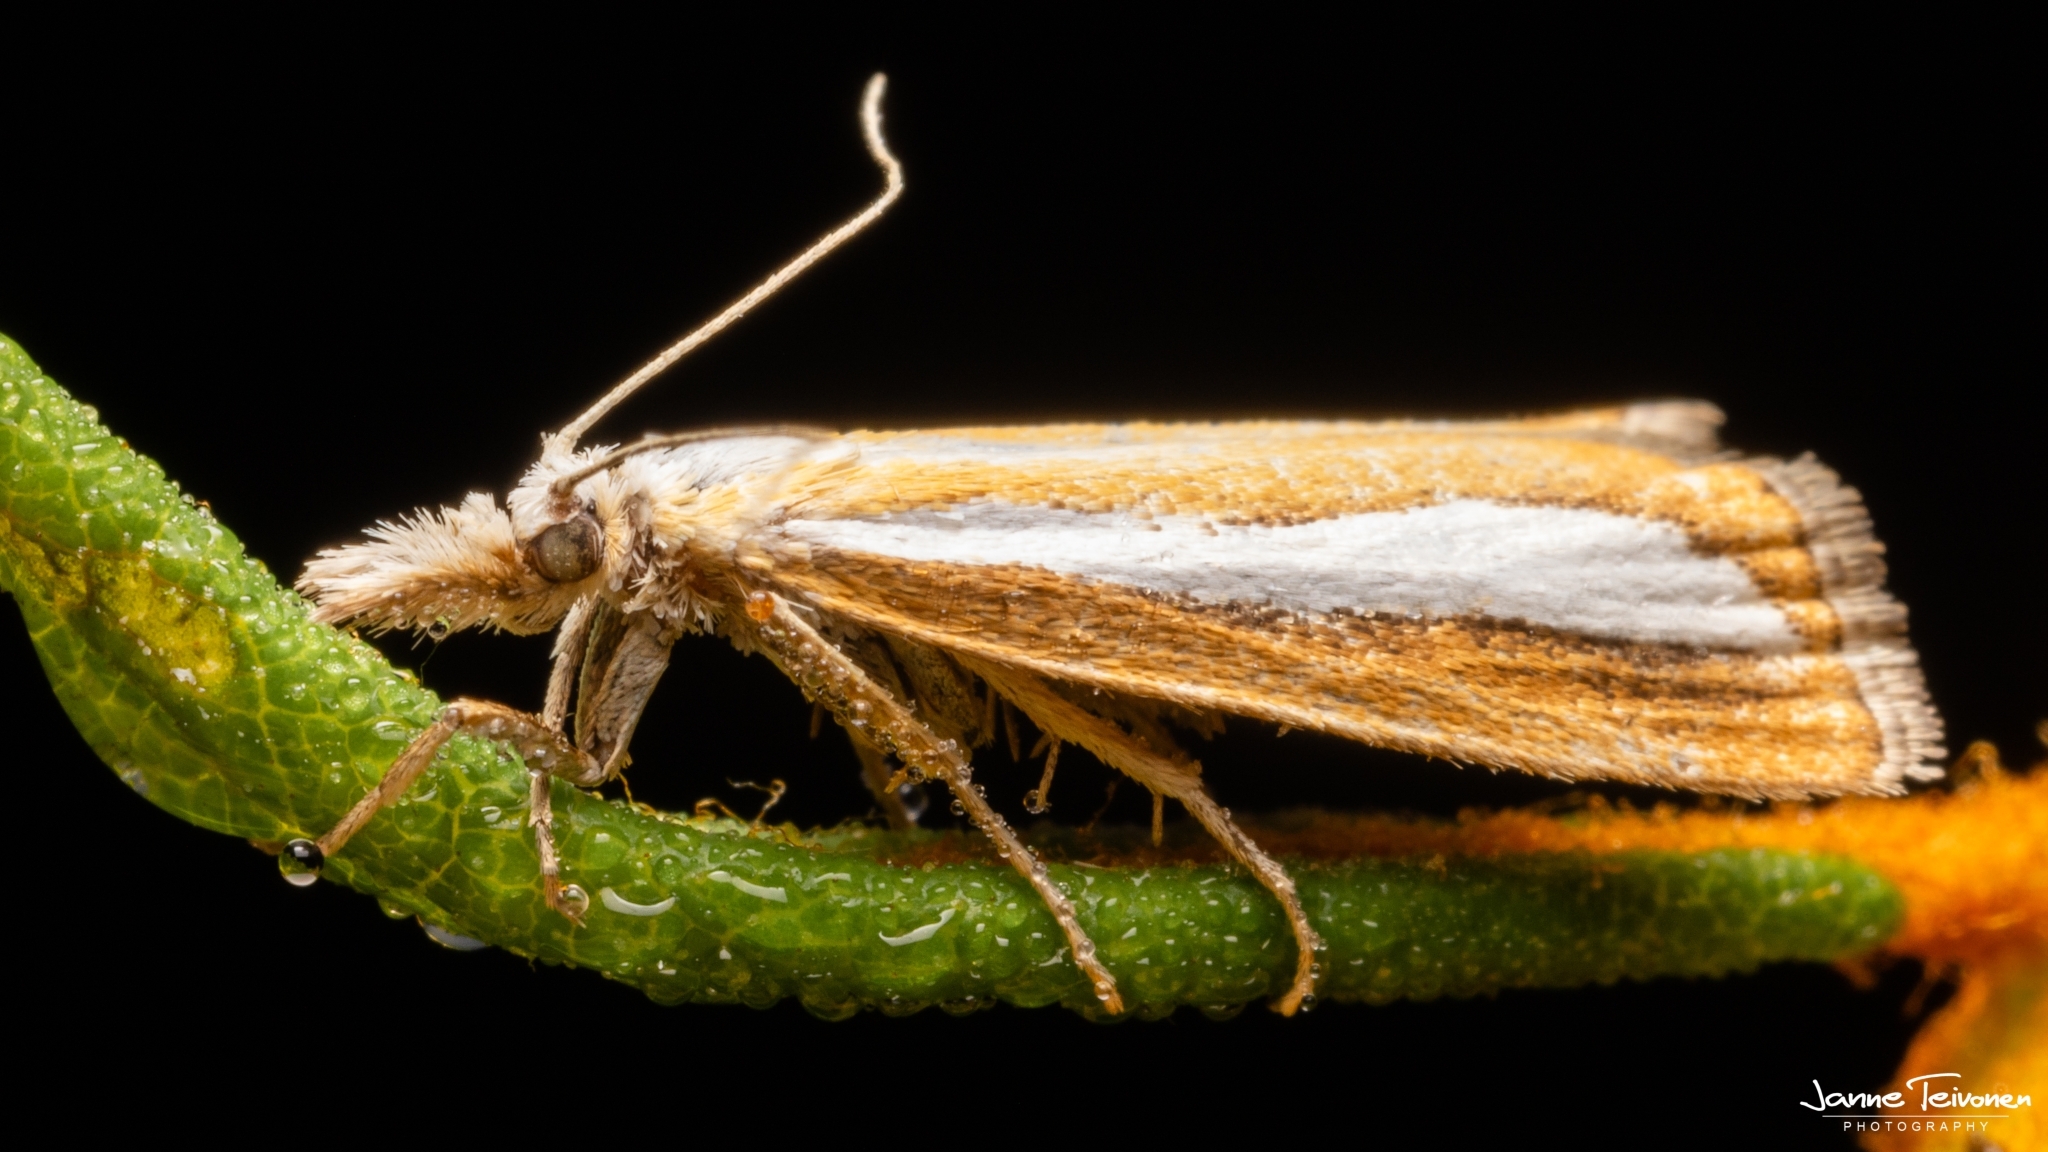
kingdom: Animalia
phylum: Arthropoda
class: Insecta
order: Lepidoptera
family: Crambidae
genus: Catoptria
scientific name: Catoptria margaritellus
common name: Pearl-band grass veneer
